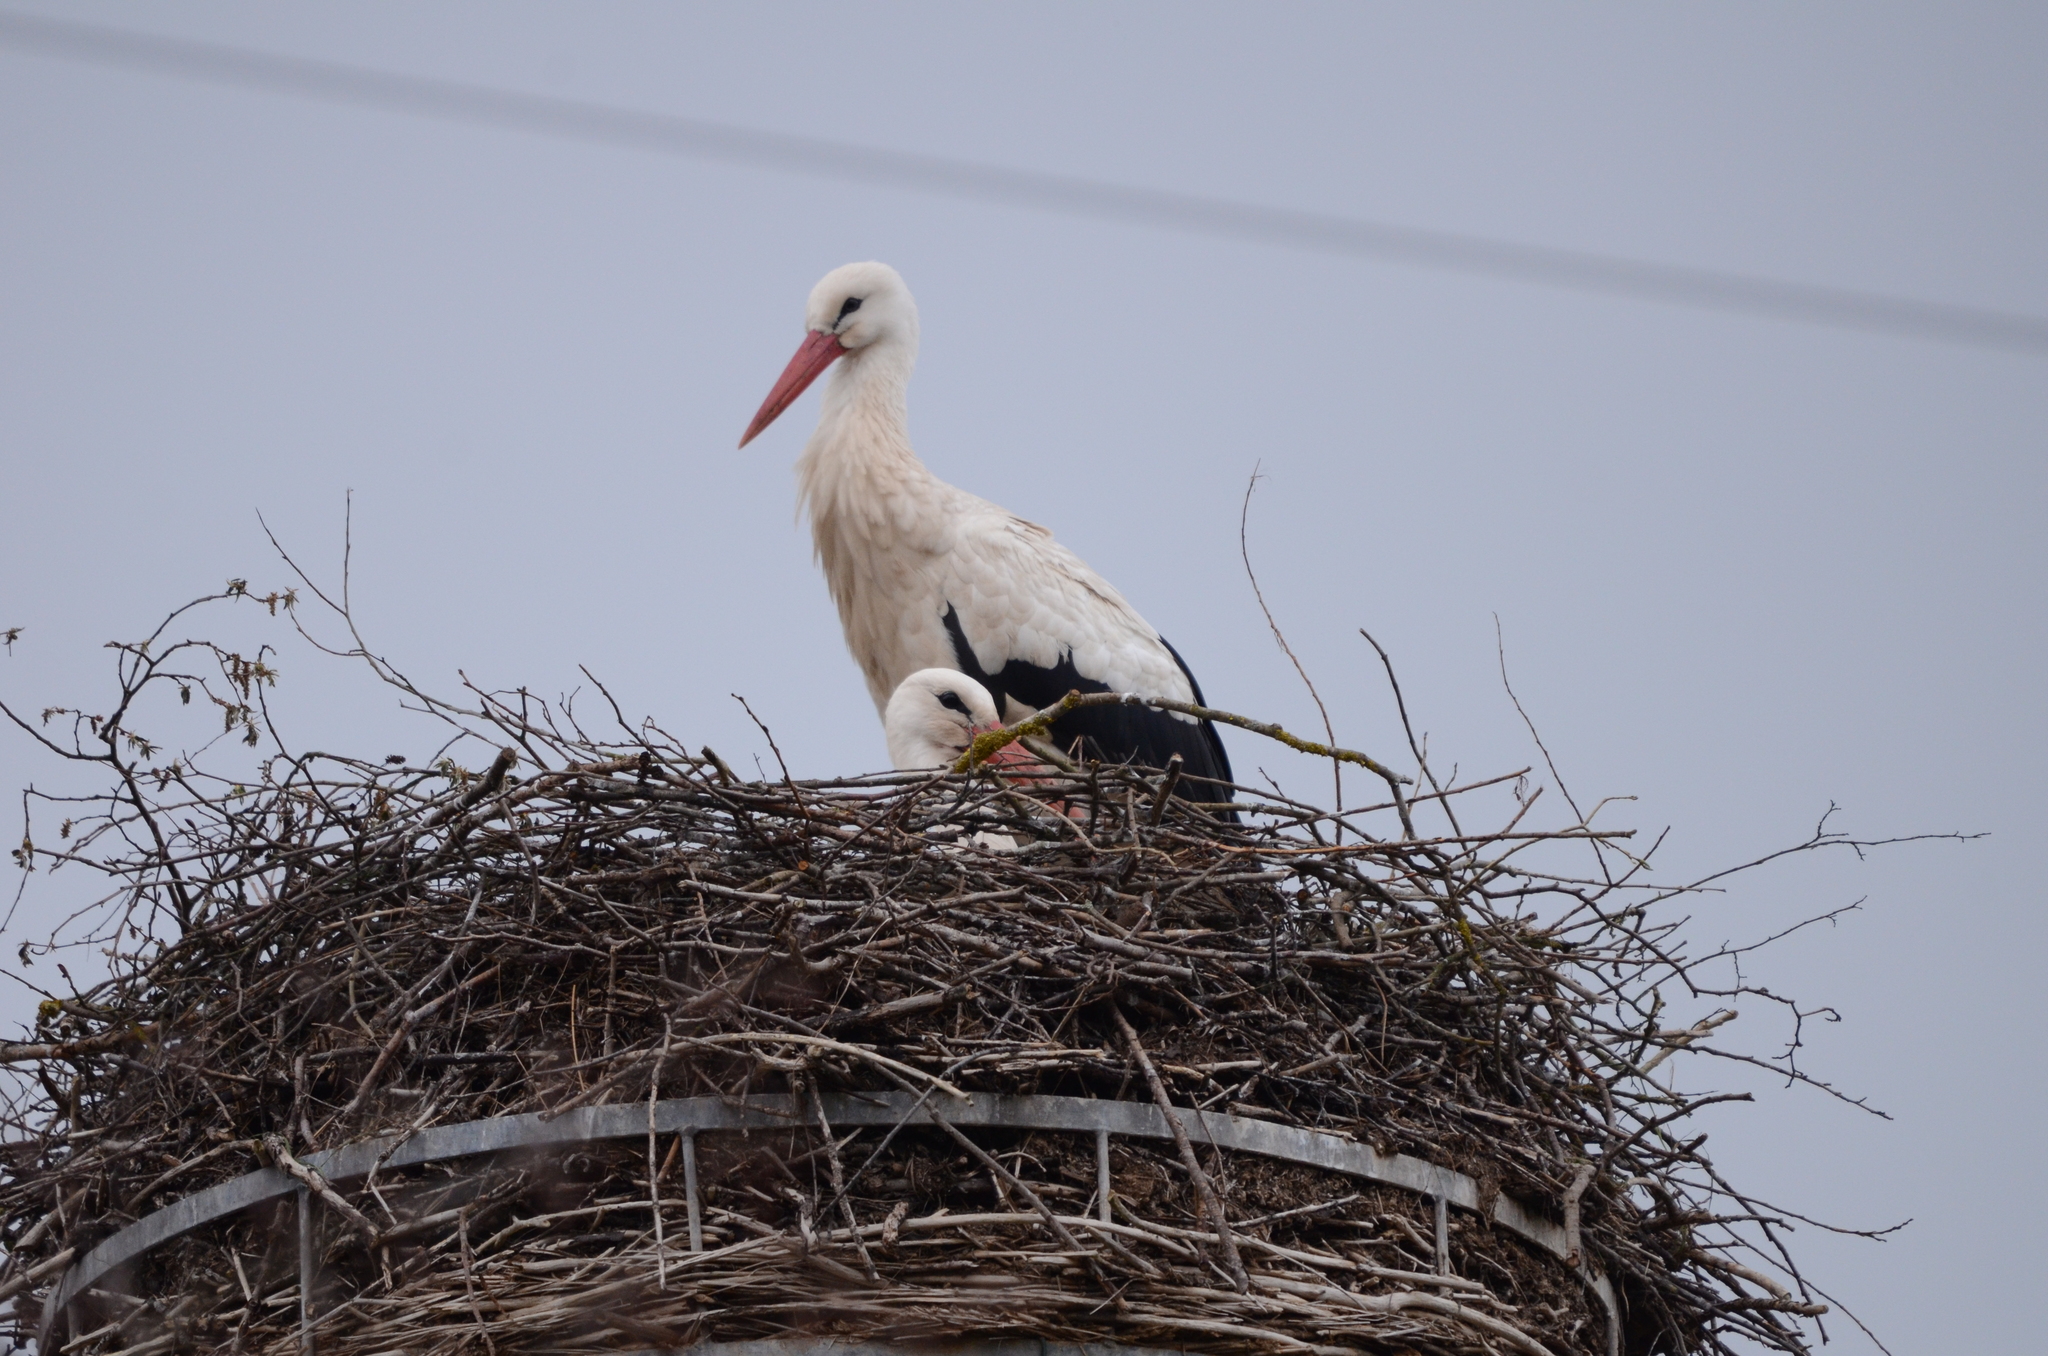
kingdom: Animalia
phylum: Chordata
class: Aves
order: Ciconiiformes
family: Ciconiidae
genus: Ciconia
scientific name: Ciconia ciconia
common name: White stork
